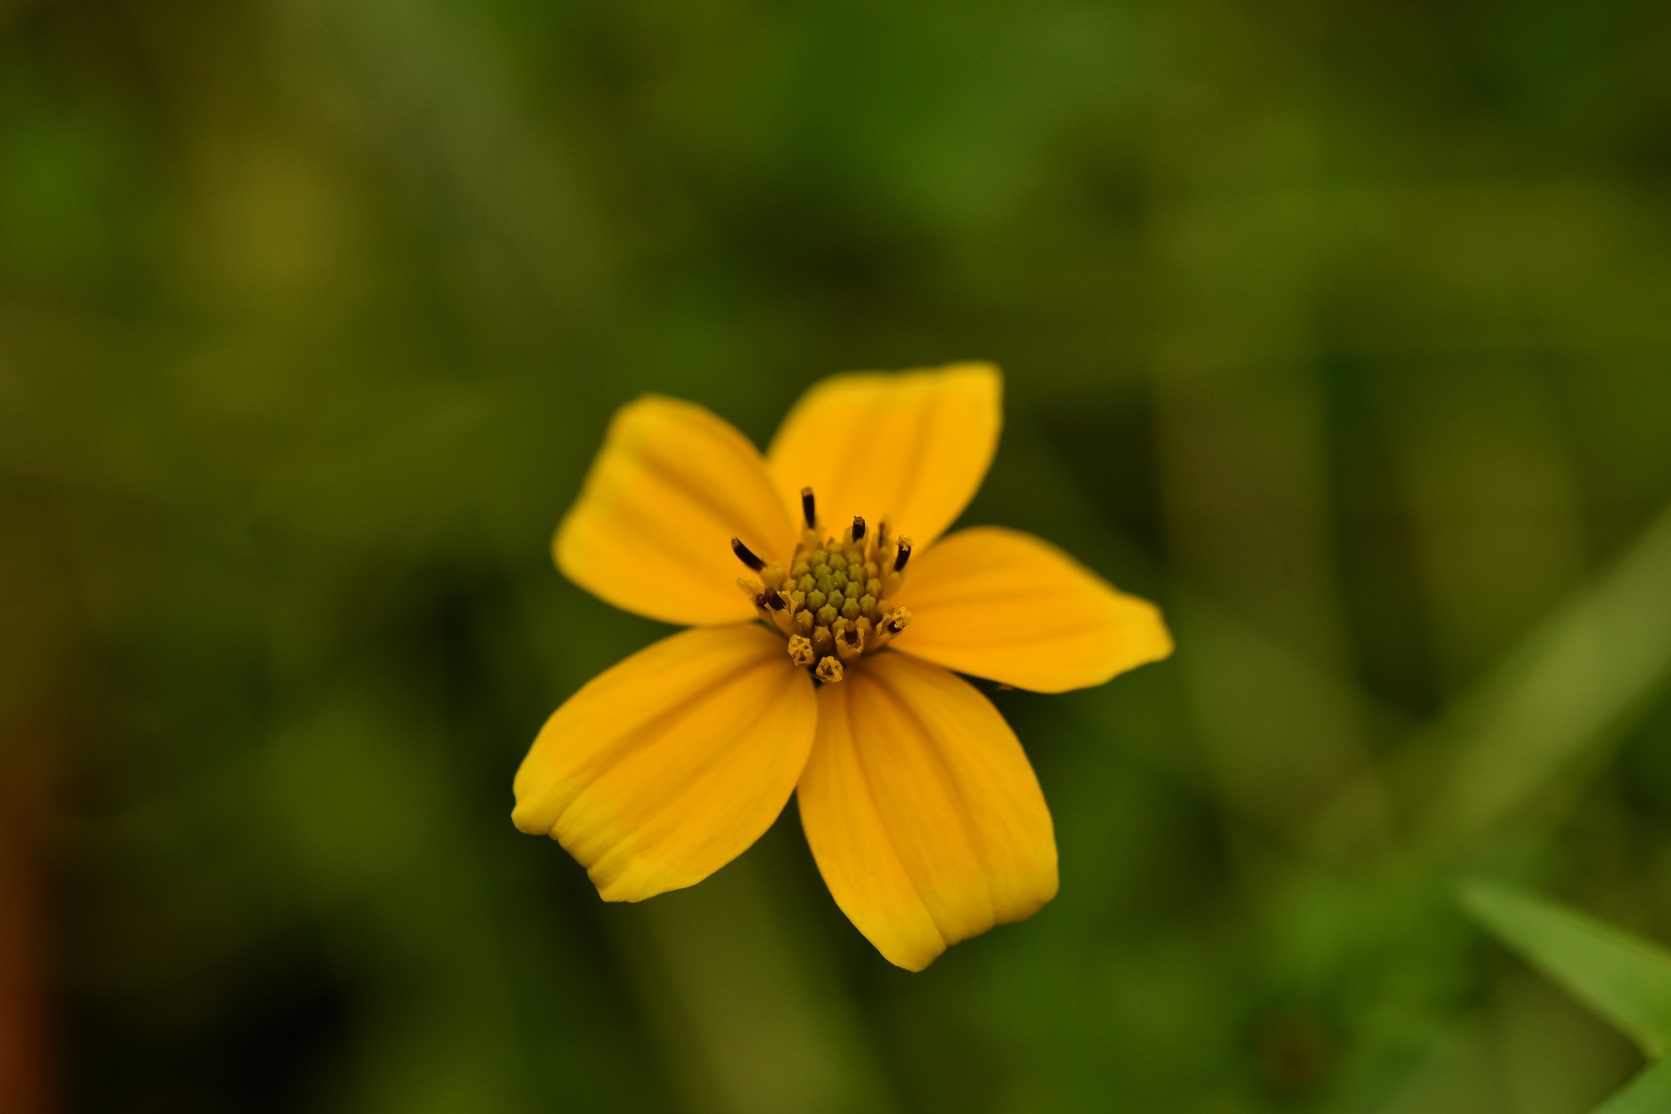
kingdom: Plantae
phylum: Tracheophyta
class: Magnoliopsida
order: Asterales
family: Asteraceae
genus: Bidens
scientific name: Bidens ballsii
